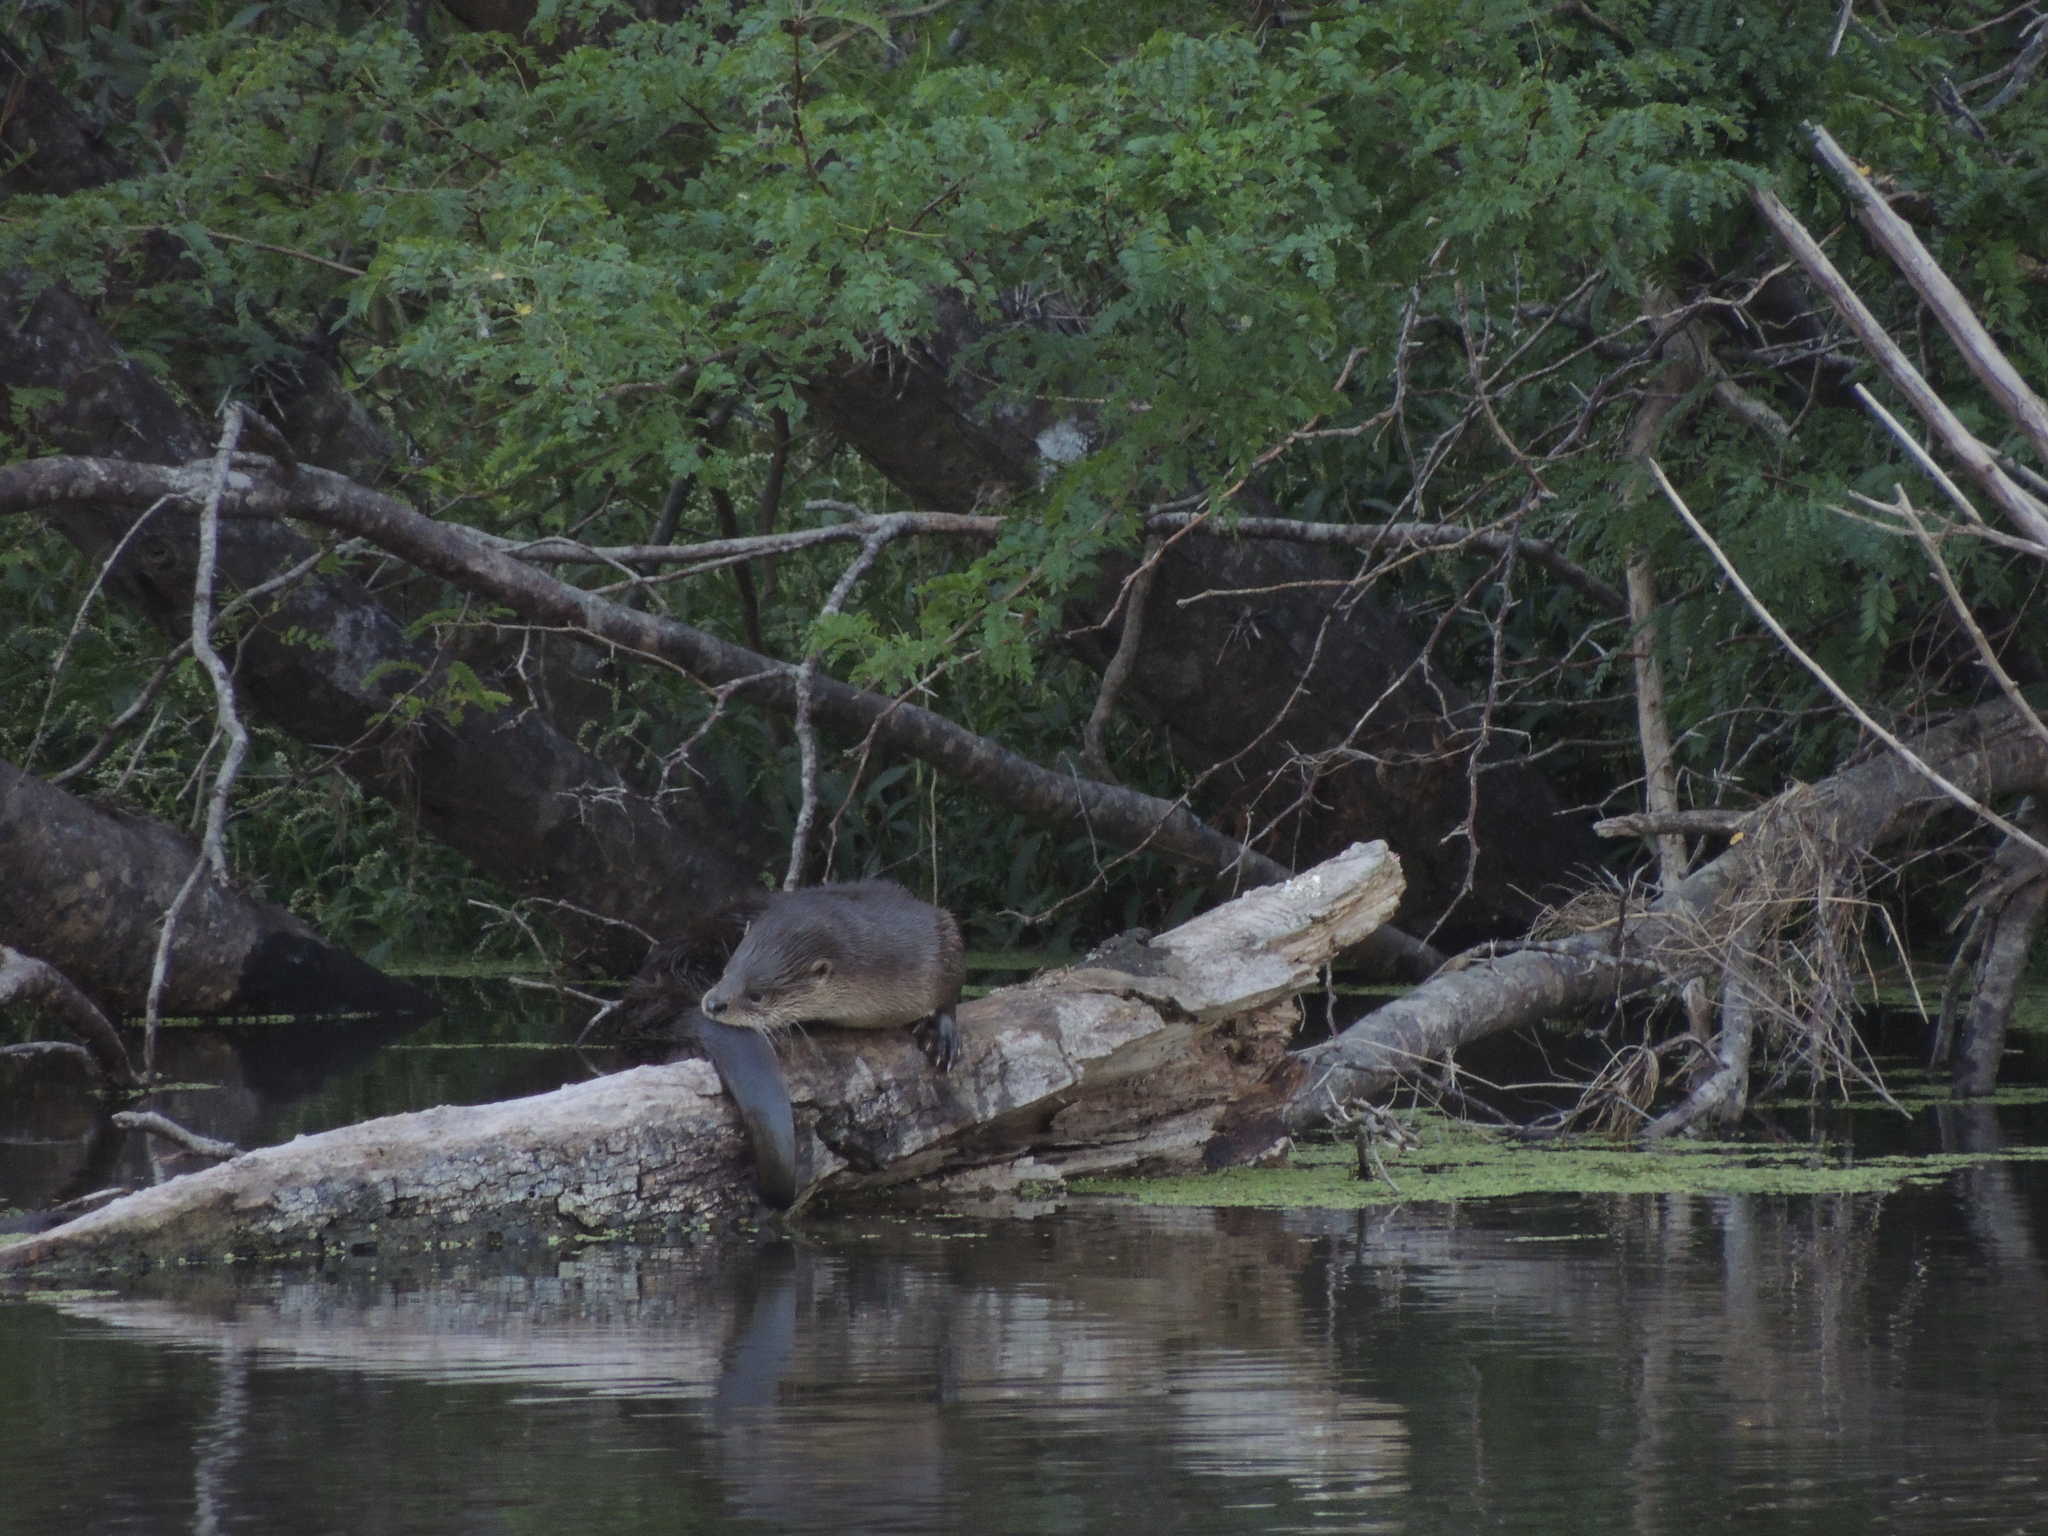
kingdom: Animalia
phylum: Chordata
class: Mammalia
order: Carnivora
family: Mustelidae
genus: Lontra
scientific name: Lontra longicaudis
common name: Neotropical otter
